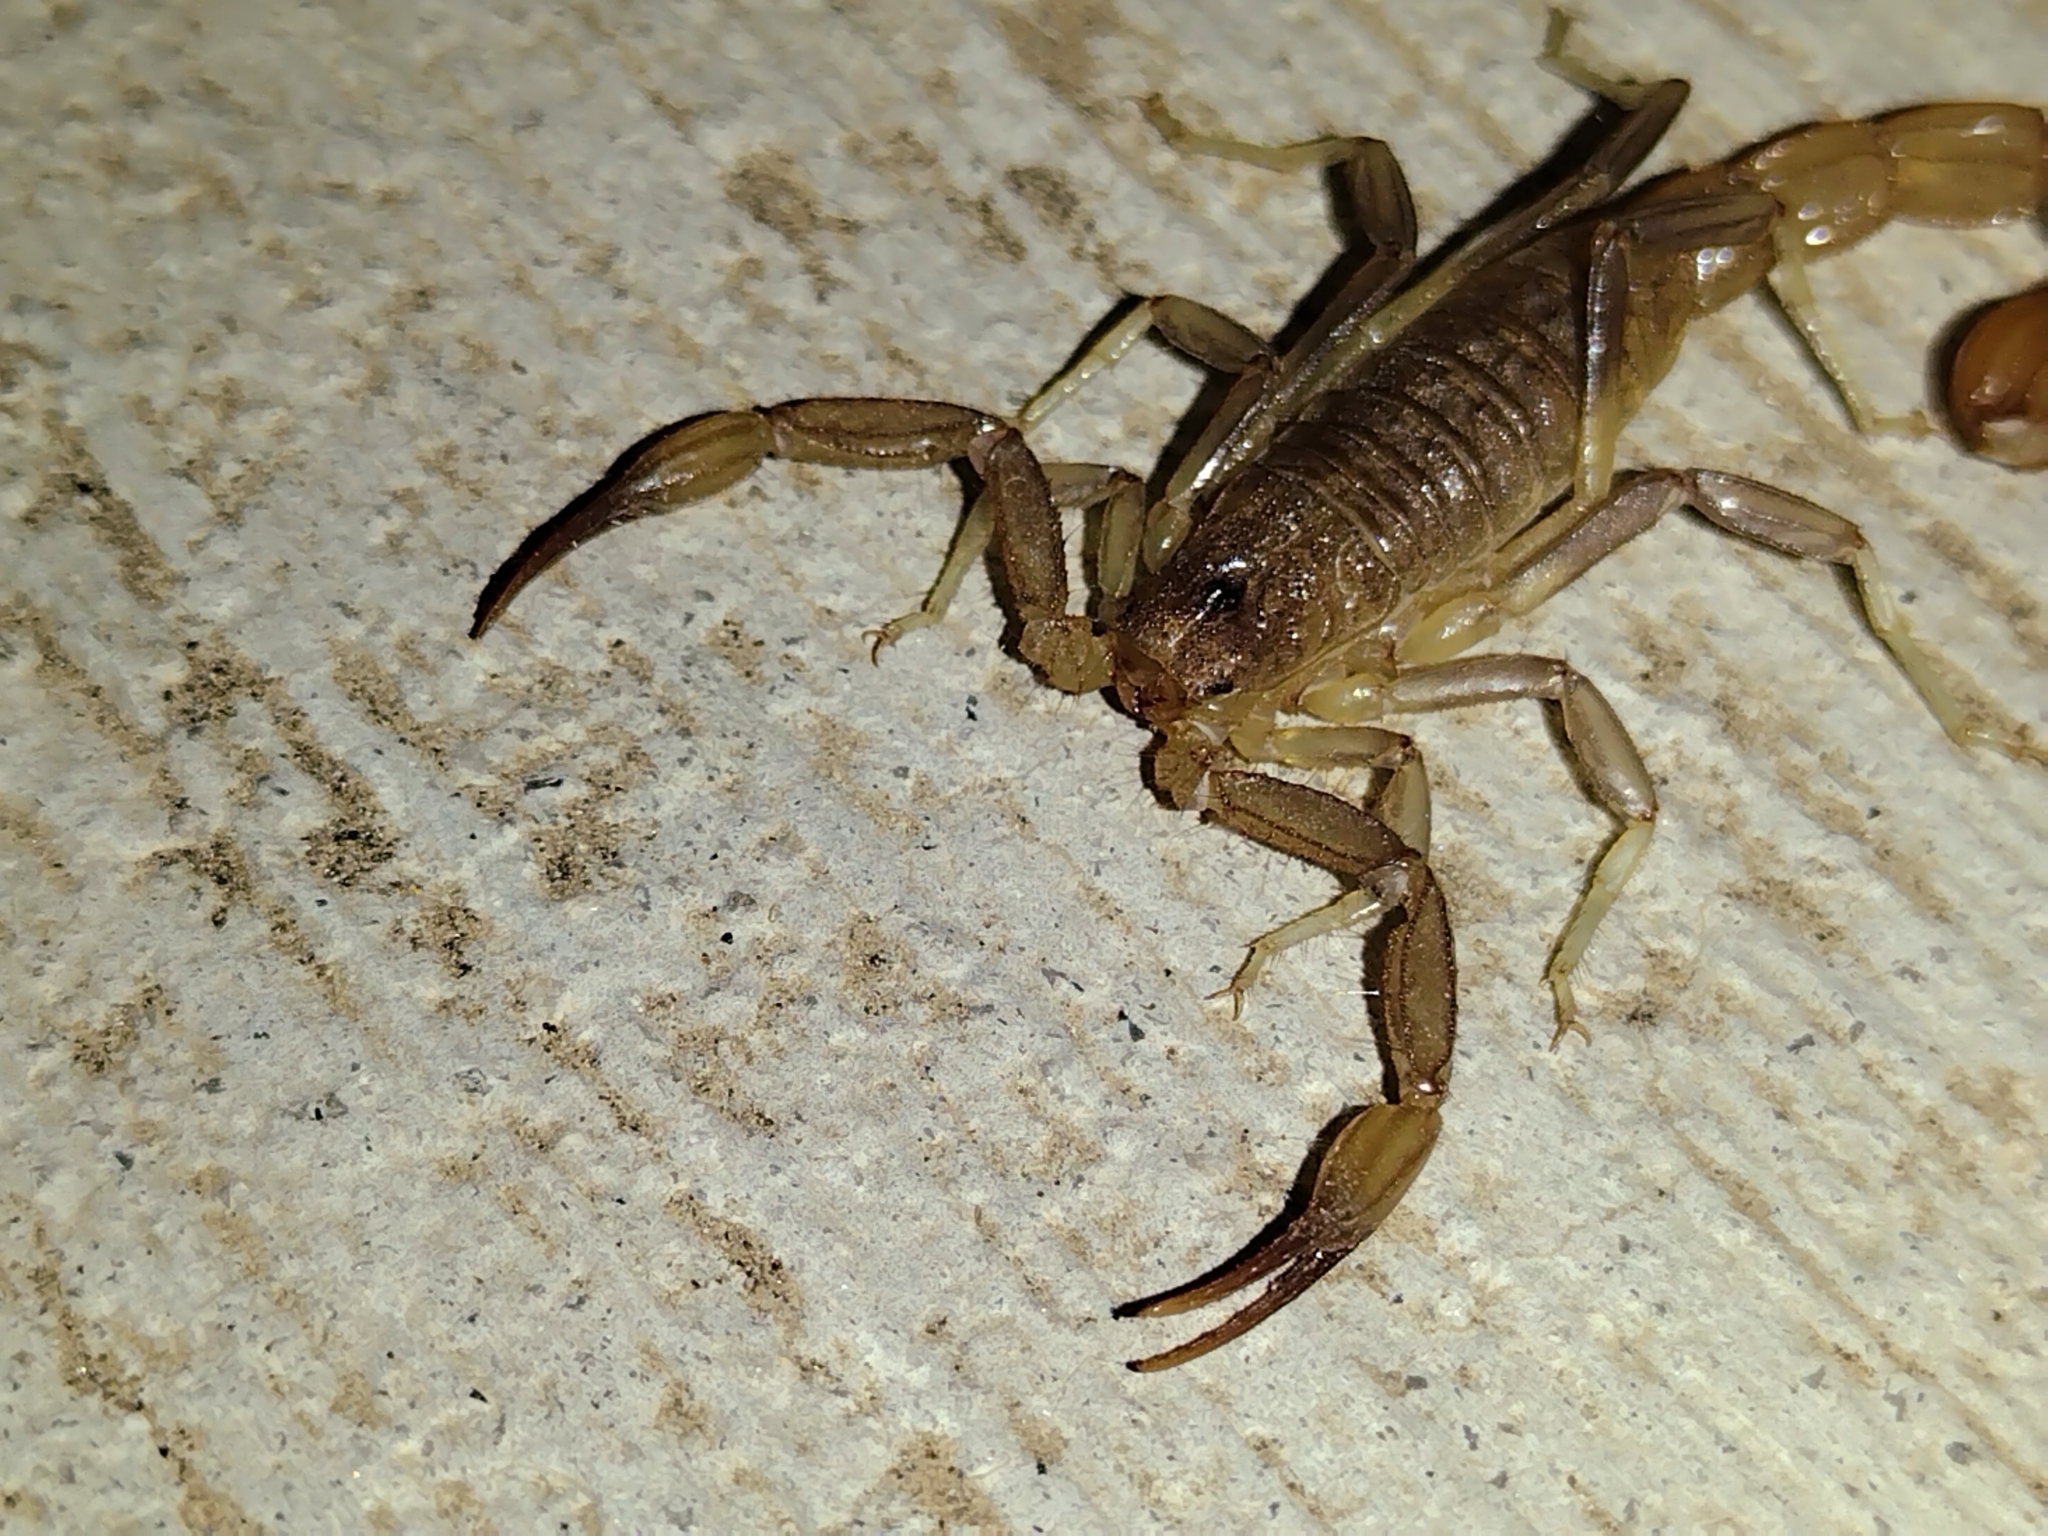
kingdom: Animalia
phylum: Arthropoda
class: Arachnida
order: Scorpiones
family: Vaejovidae
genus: Paravaejovis
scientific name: Paravaejovis puritanus
